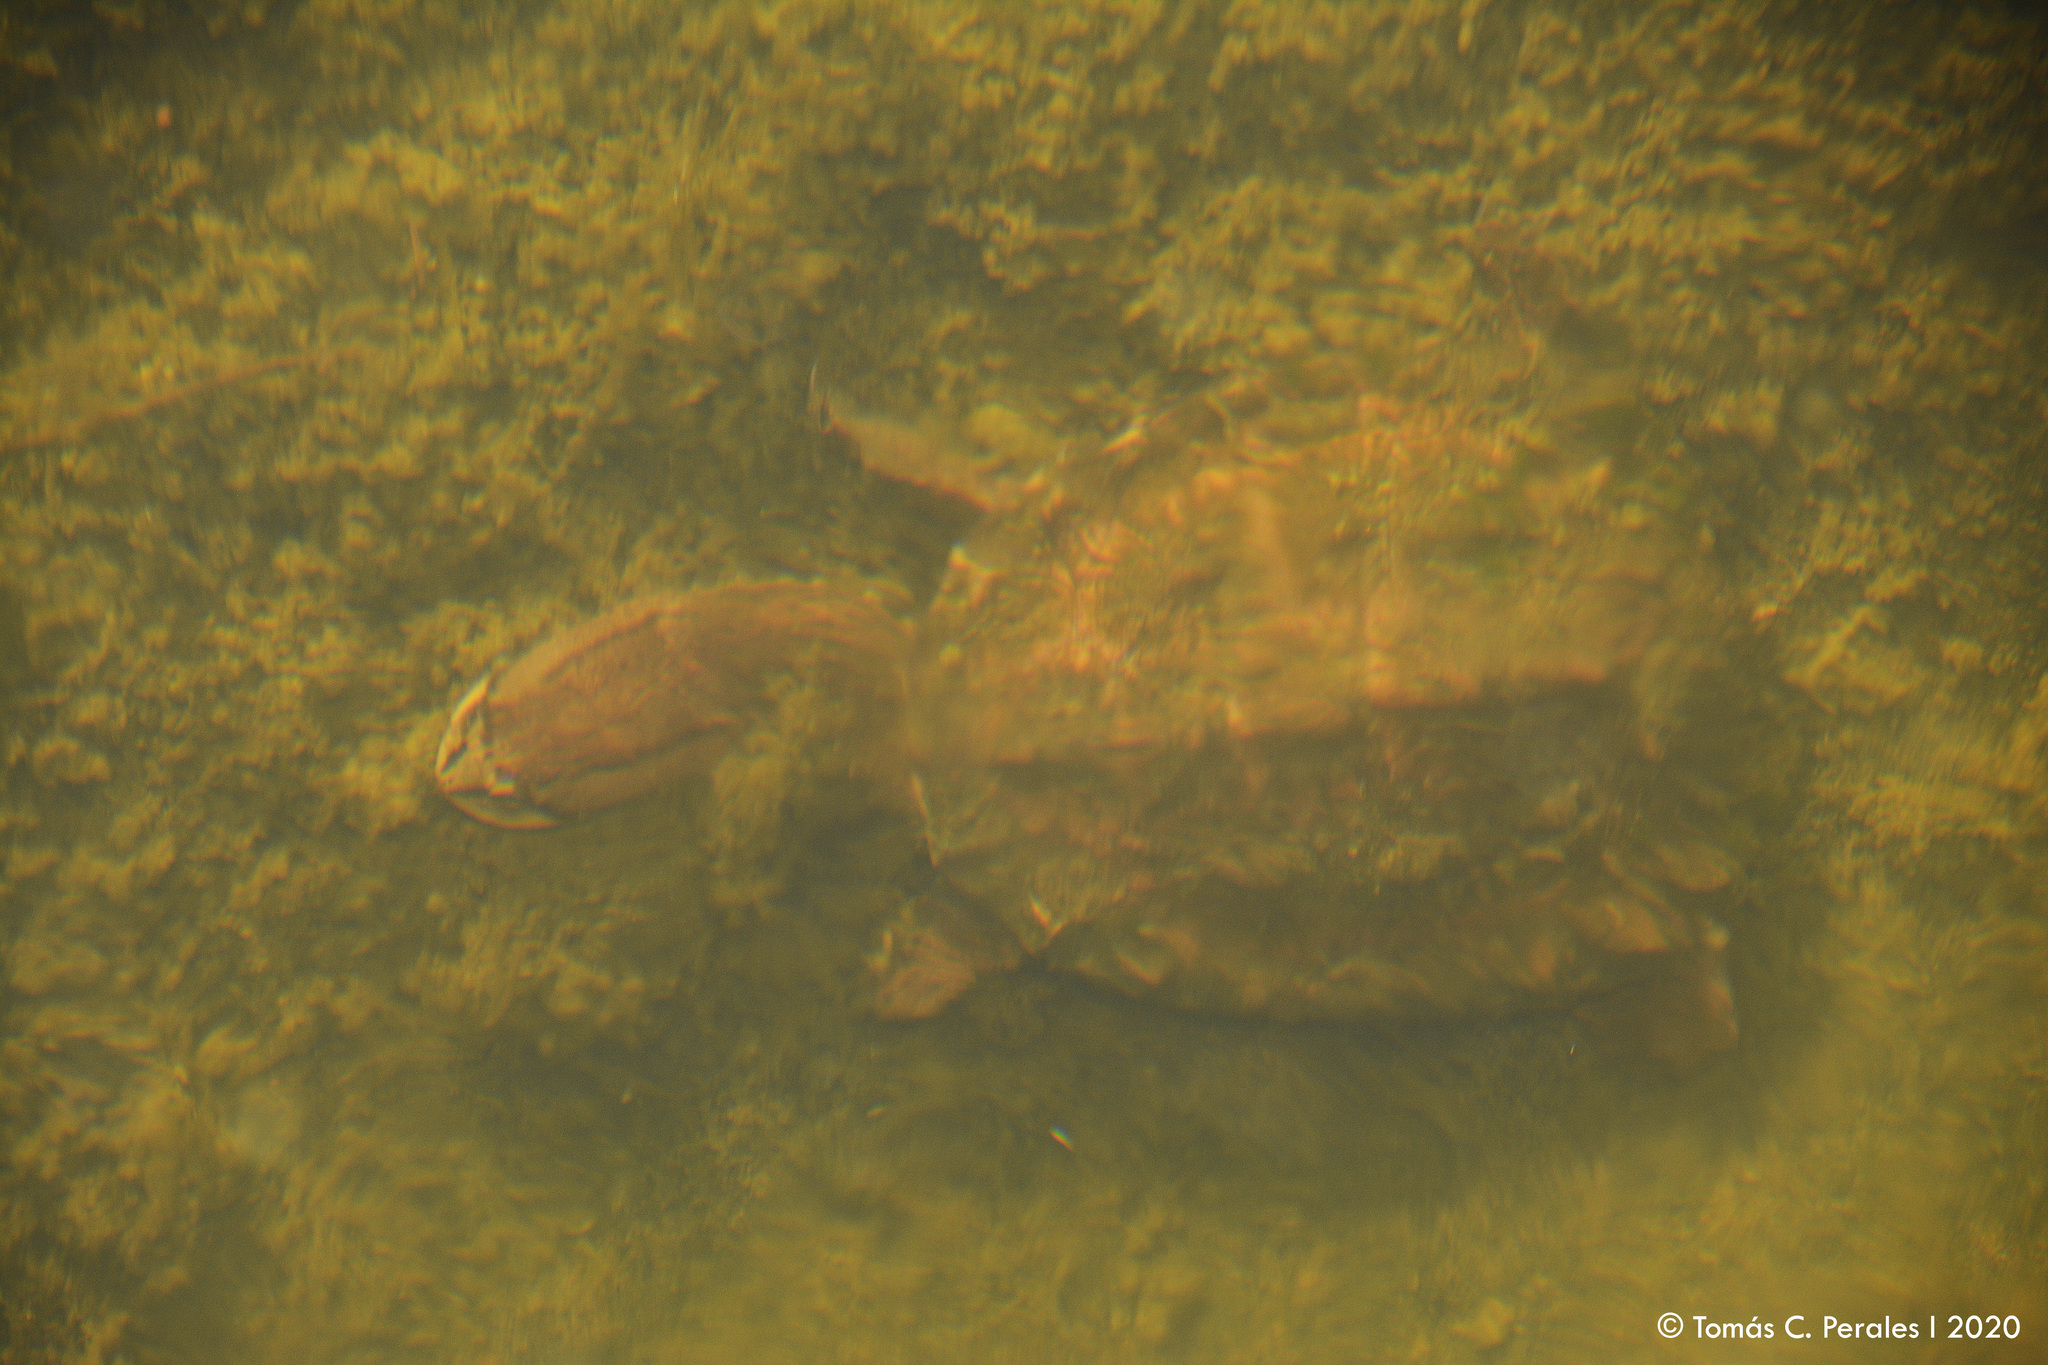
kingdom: Animalia
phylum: Chordata
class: Testudines
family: Chelidae
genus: Hydromedusa
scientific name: Hydromedusa tectifera
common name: Argentine snake-necked turtle
